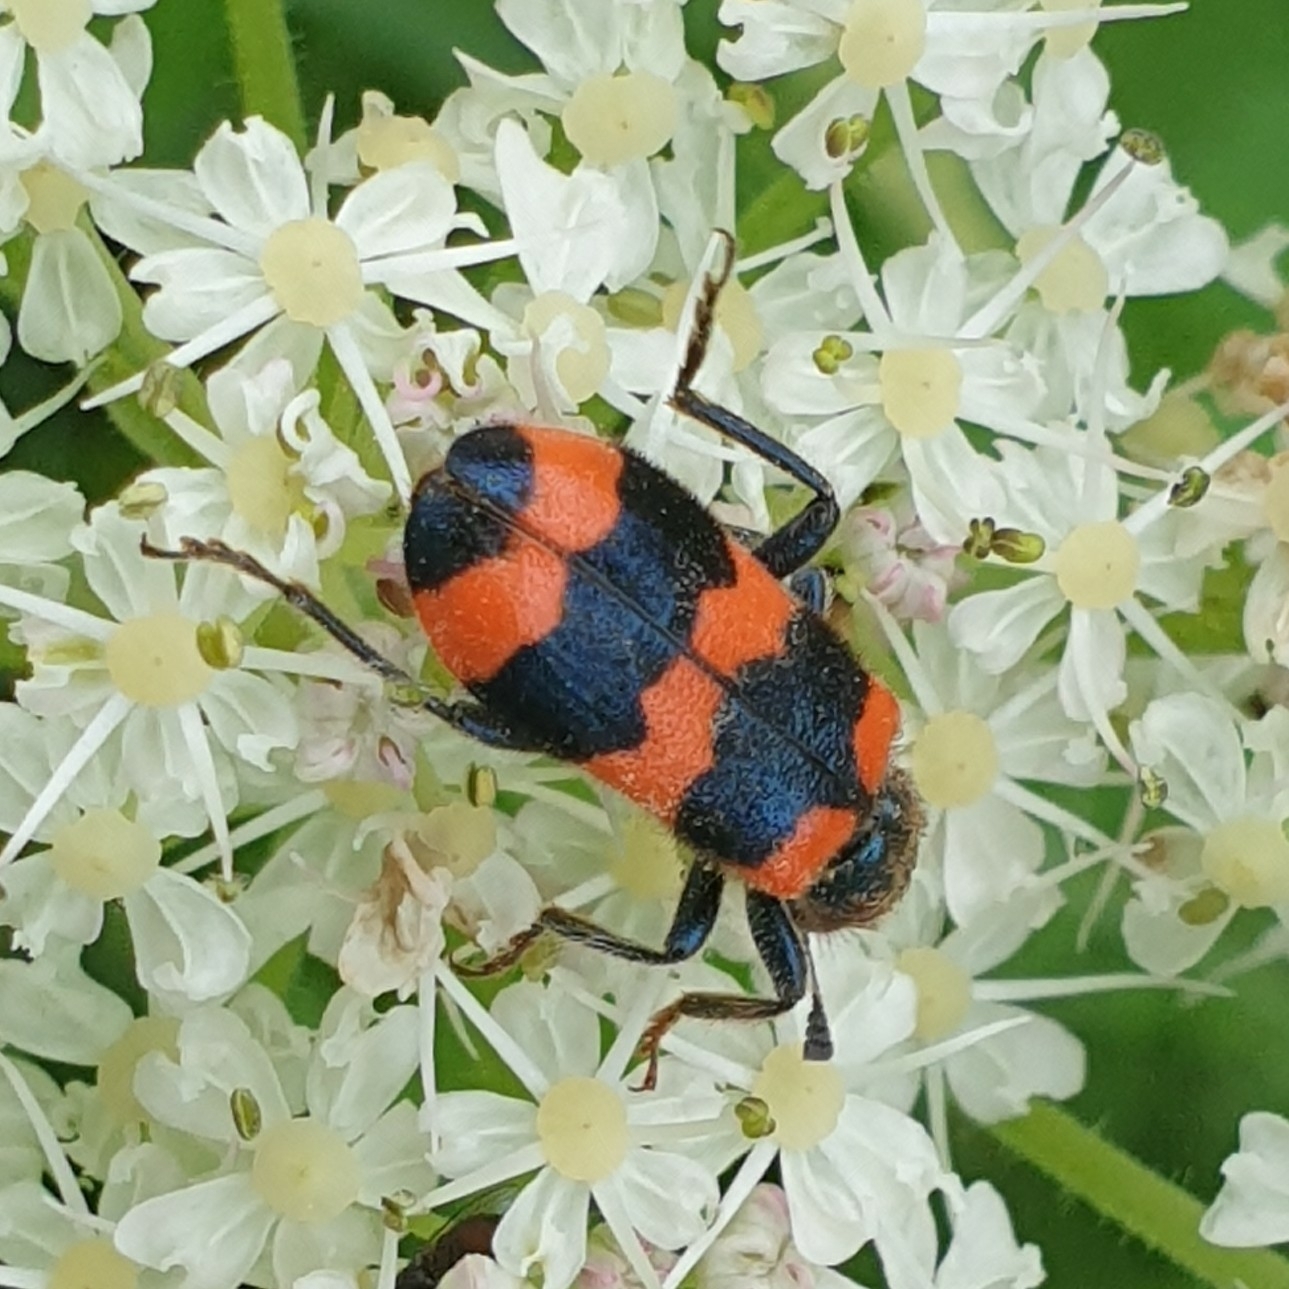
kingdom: Animalia
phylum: Arthropoda
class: Insecta
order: Coleoptera
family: Cleridae
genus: Trichodes
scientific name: Trichodes apiarius
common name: Bee-eating beetle
